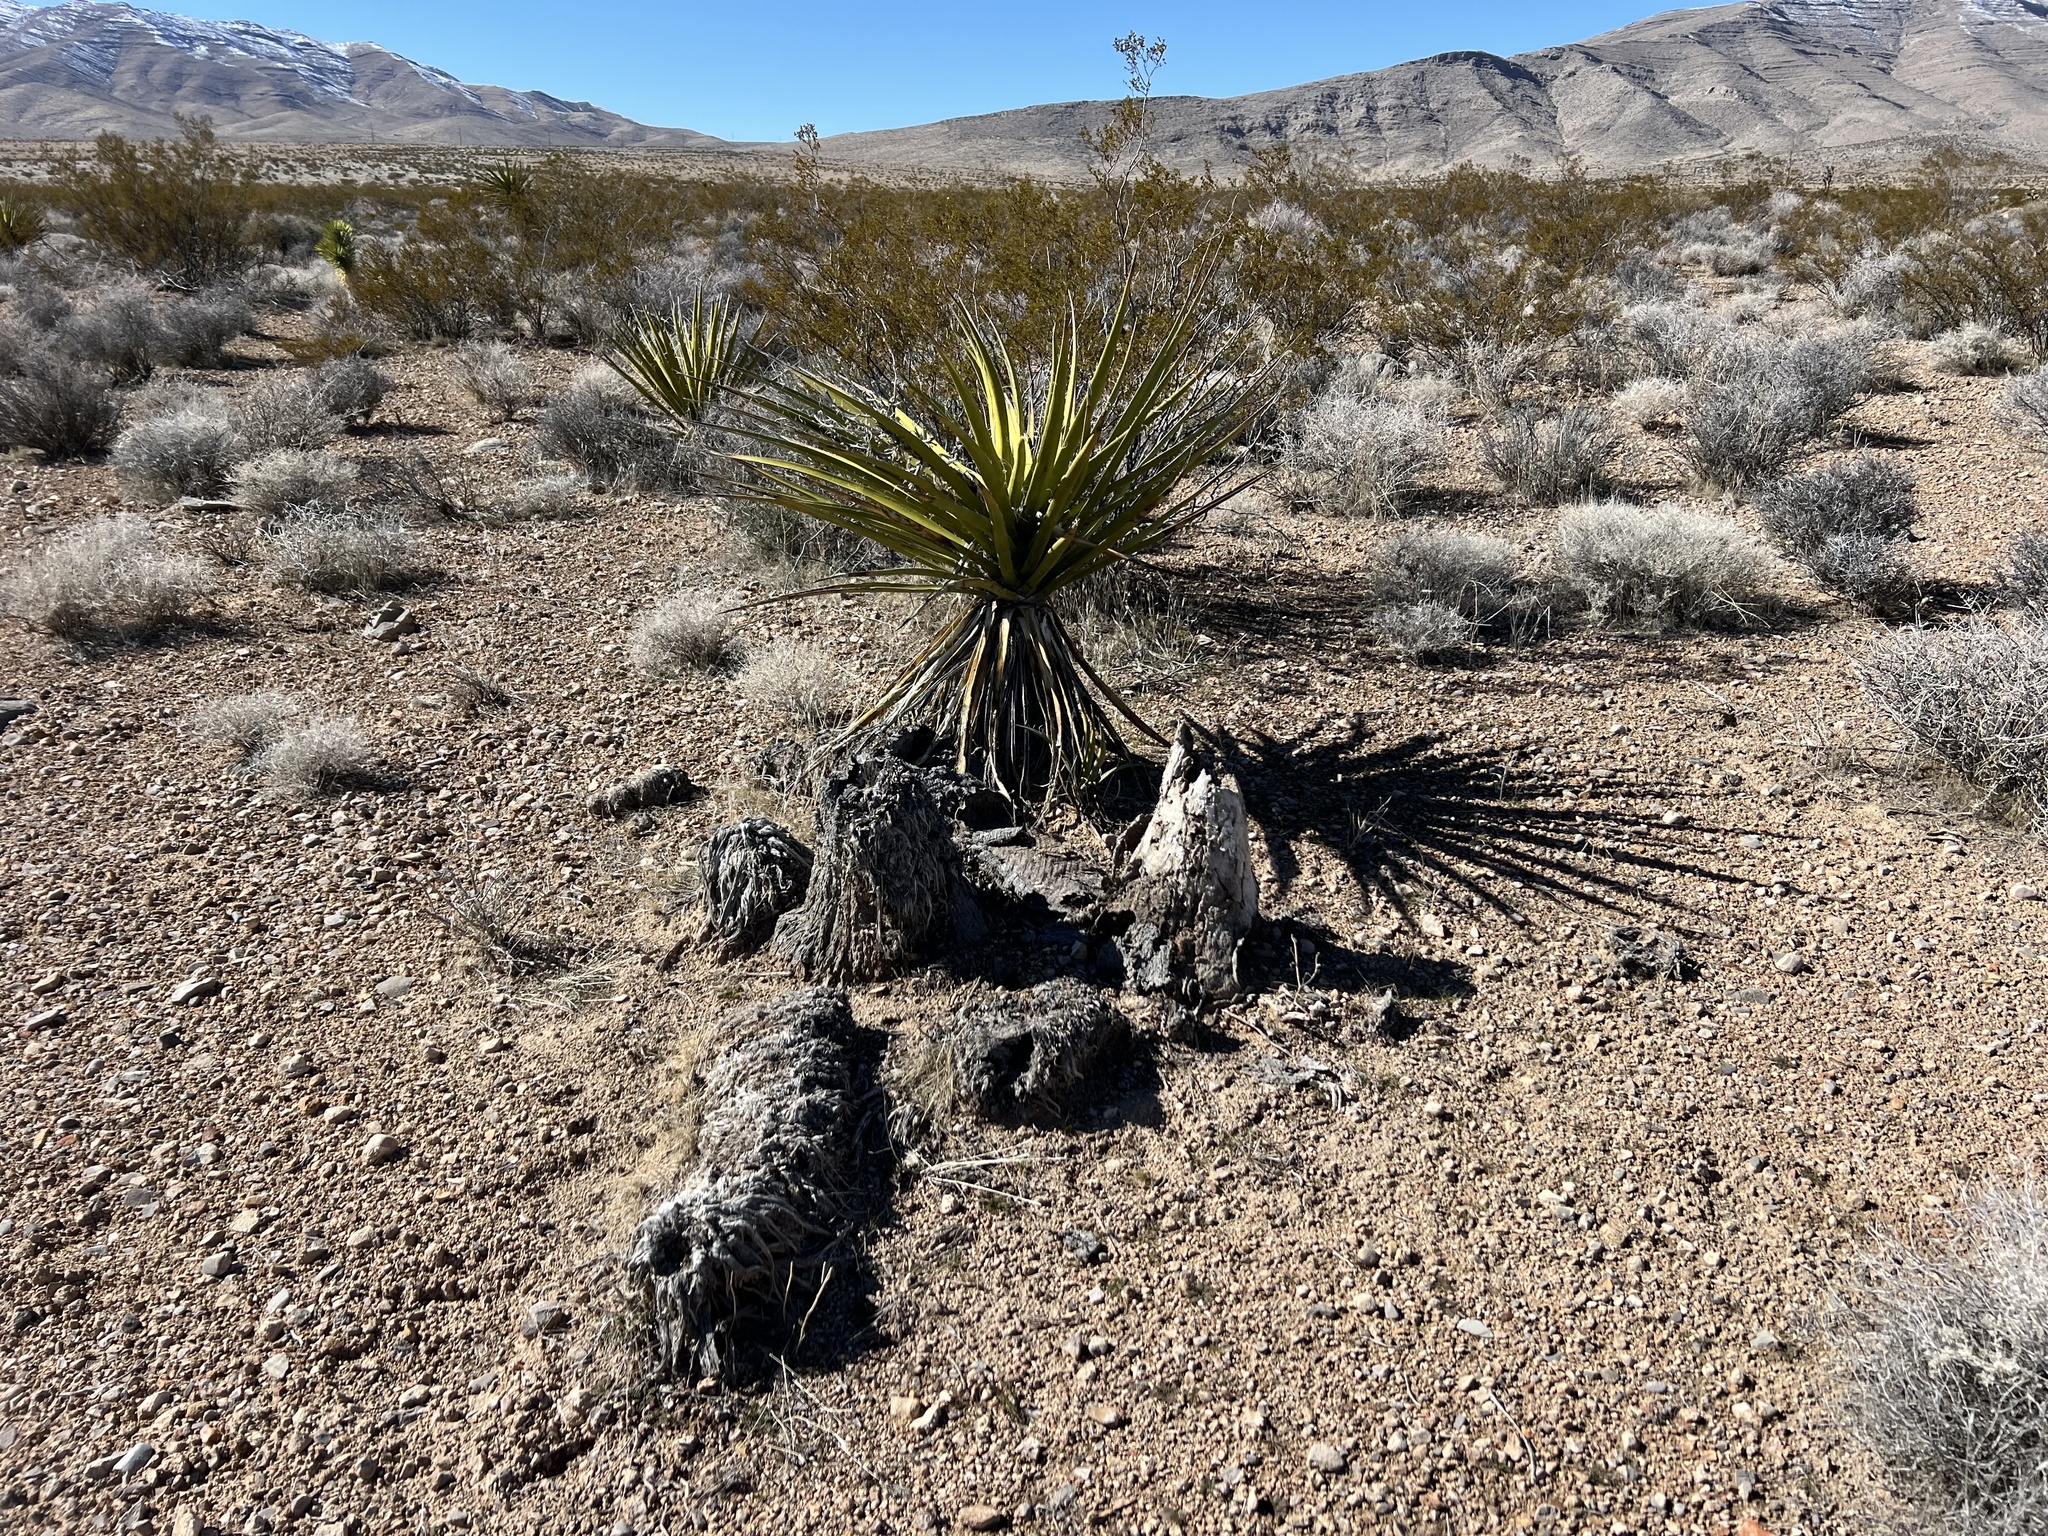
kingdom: Plantae
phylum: Tracheophyta
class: Liliopsida
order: Asparagales
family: Asparagaceae
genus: Yucca
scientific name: Yucca schidigera
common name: Mojave yucca
